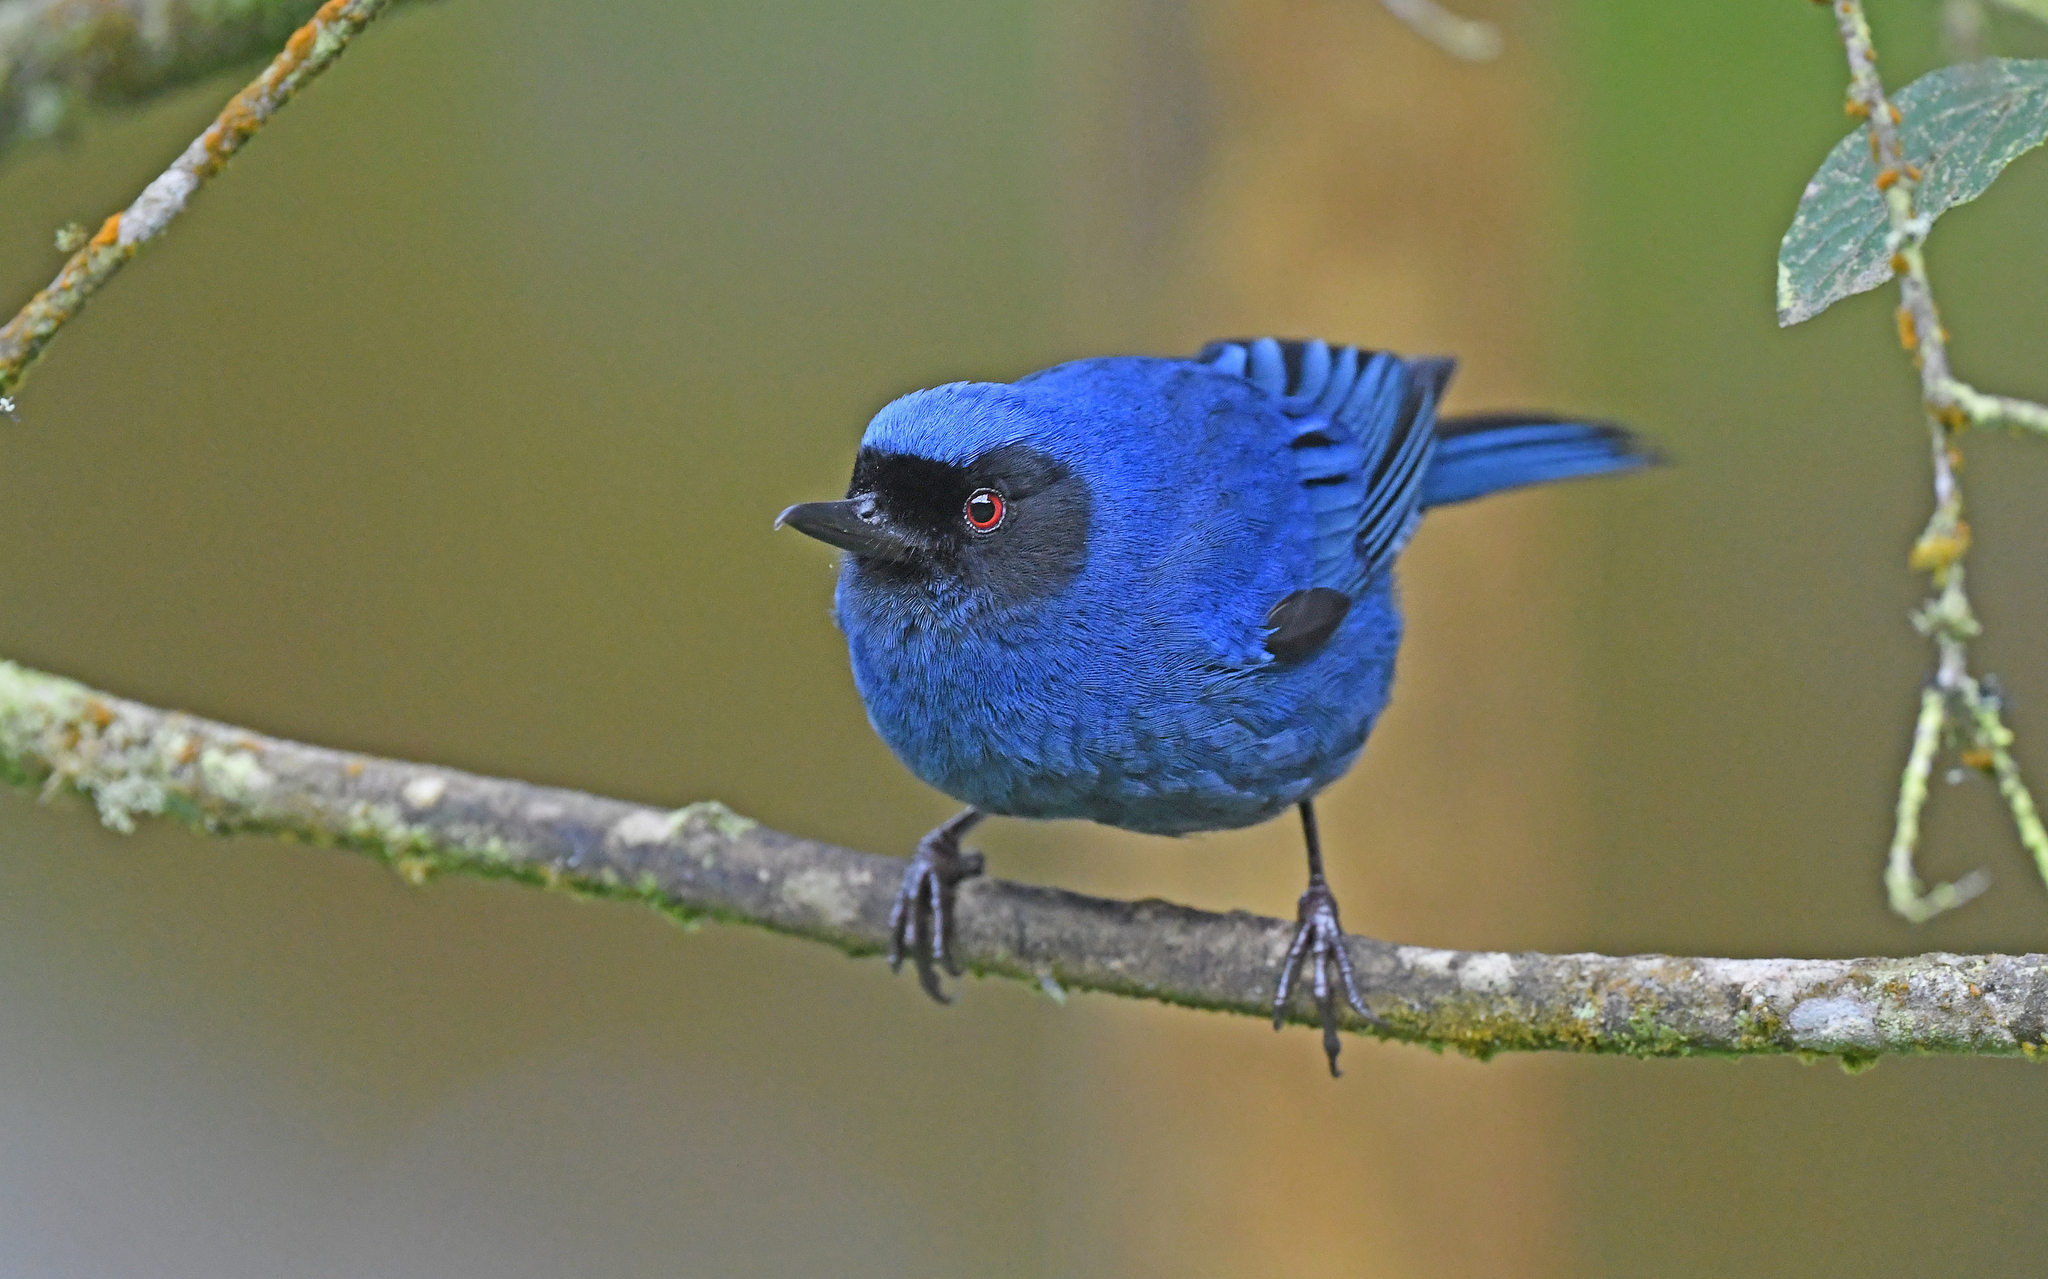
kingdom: Animalia
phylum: Chordata
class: Aves
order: Passeriformes
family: Thraupidae
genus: Diglossa
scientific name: Diglossa cyanea
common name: Masked flowerpiercer
